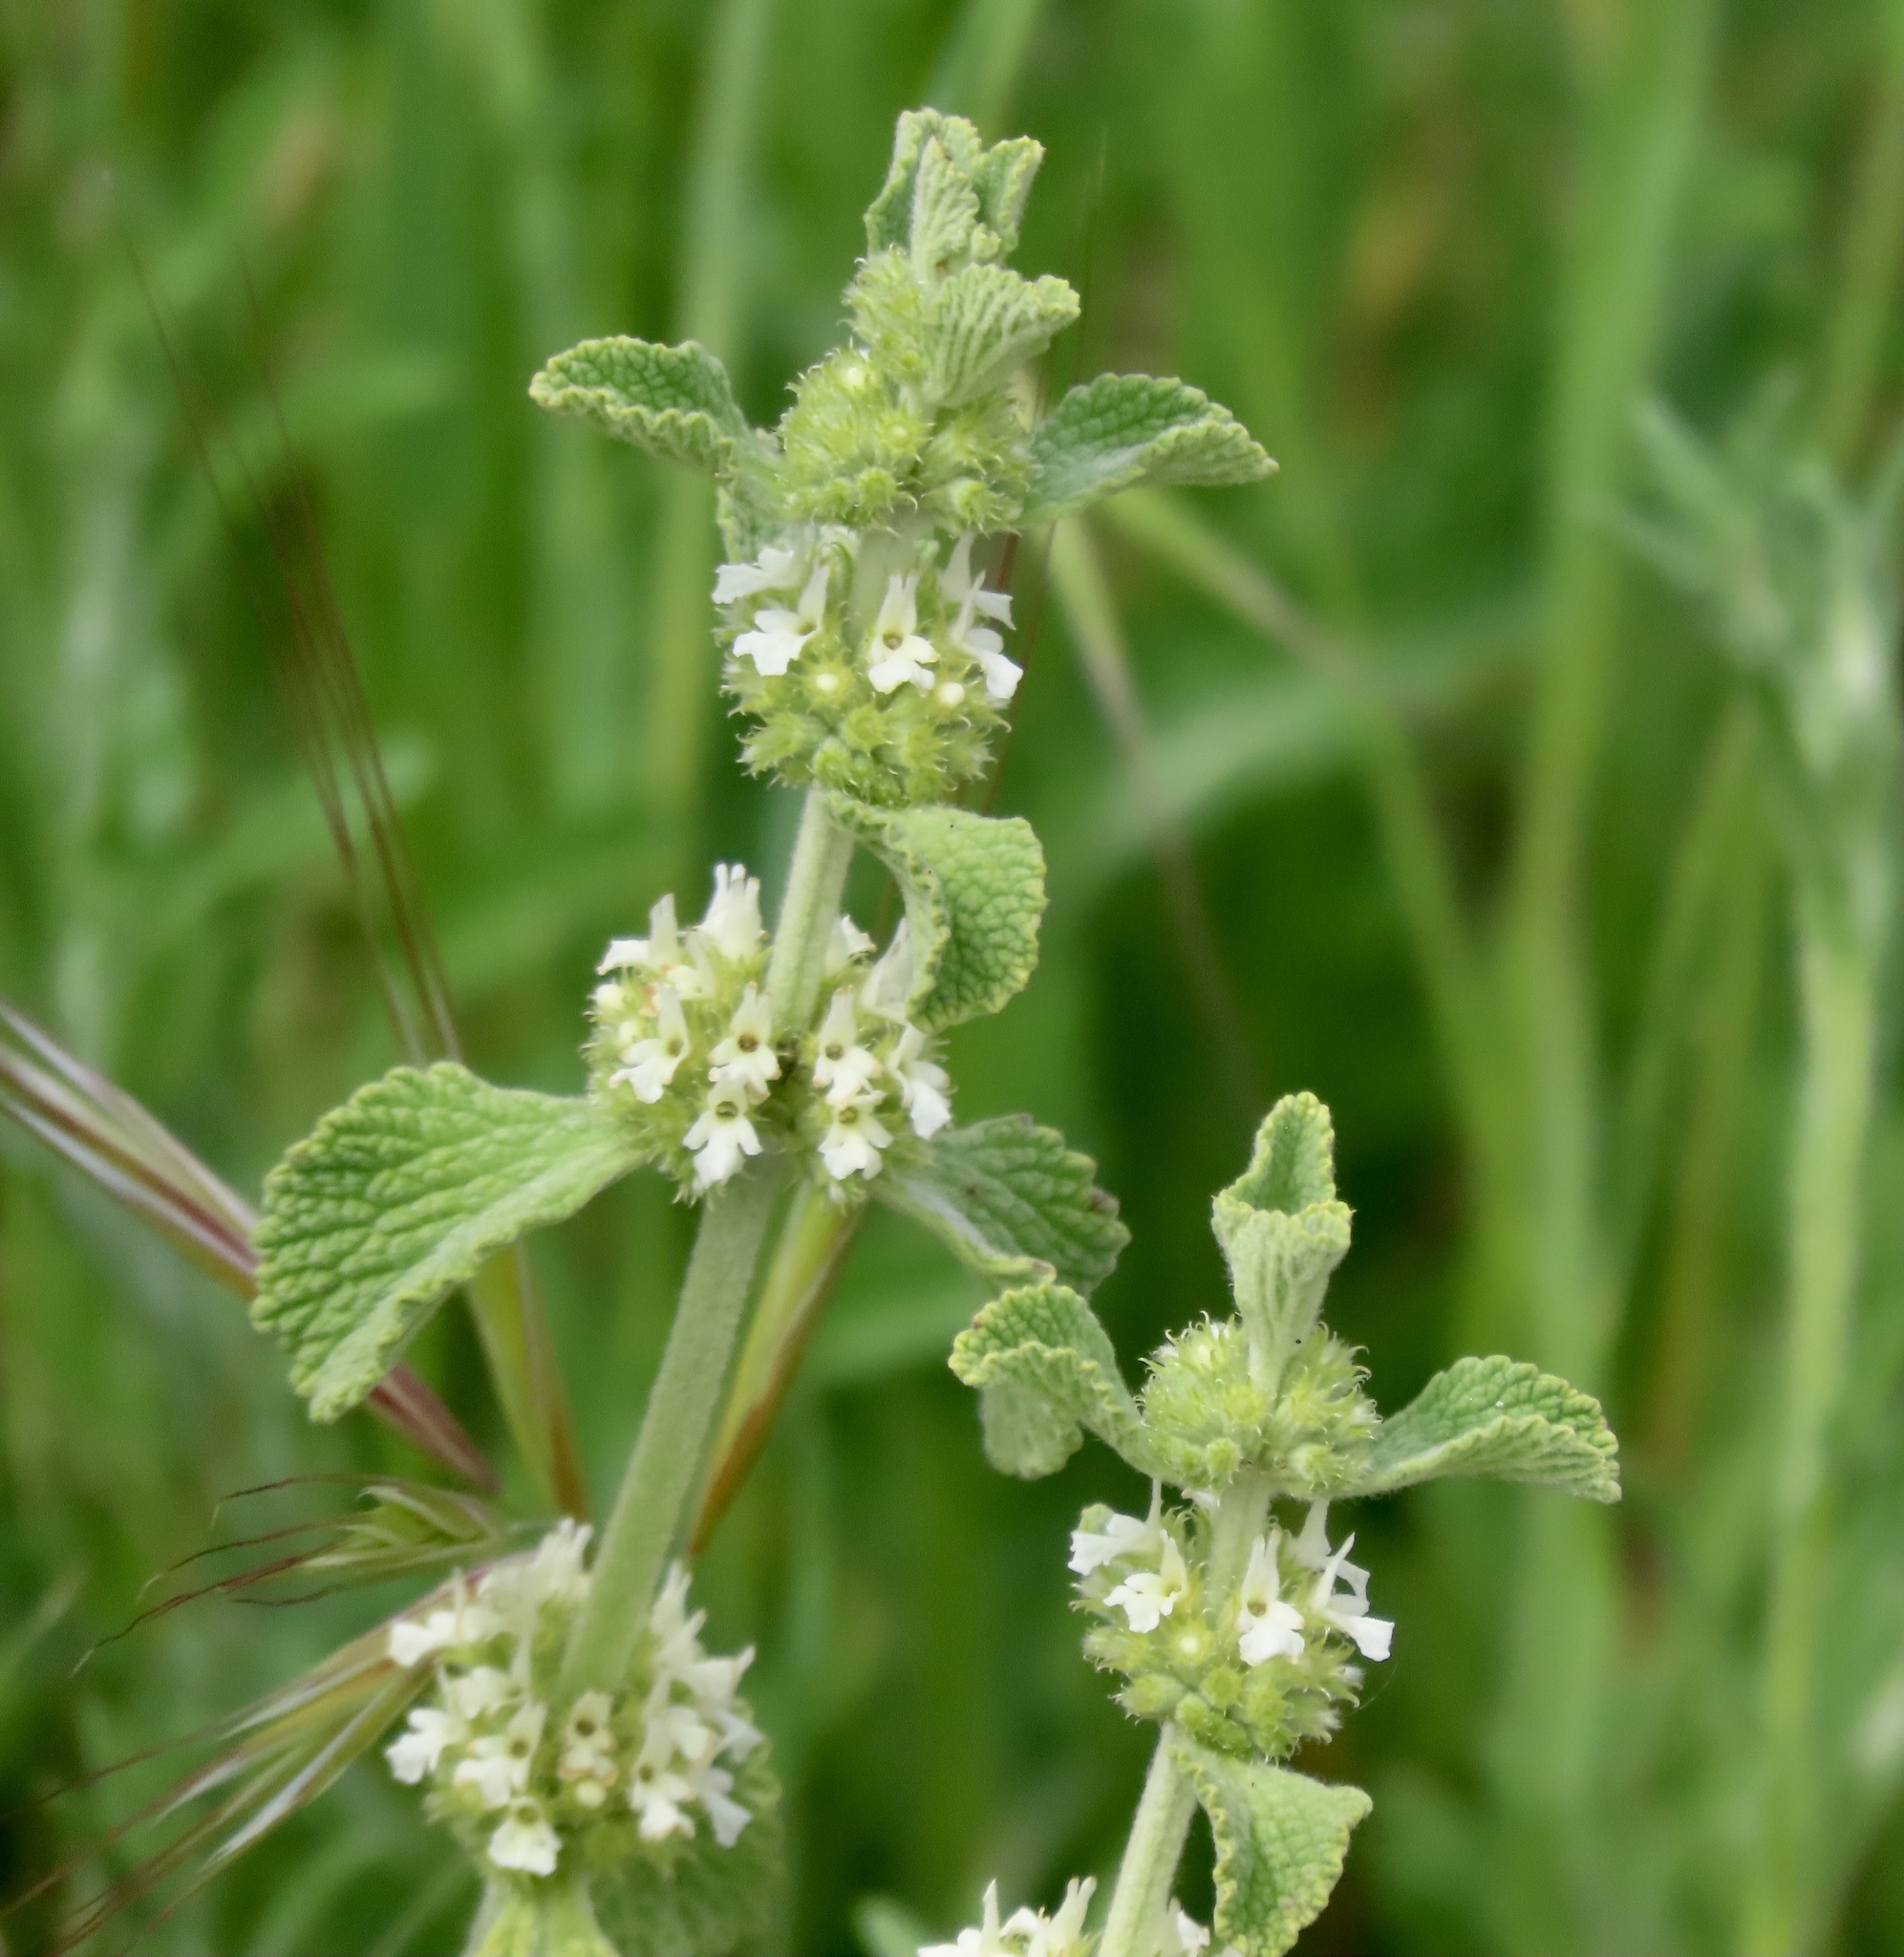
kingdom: Plantae
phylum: Tracheophyta
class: Magnoliopsida
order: Lamiales
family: Lamiaceae
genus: Marrubium
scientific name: Marrubium vulgare
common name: Horehound
